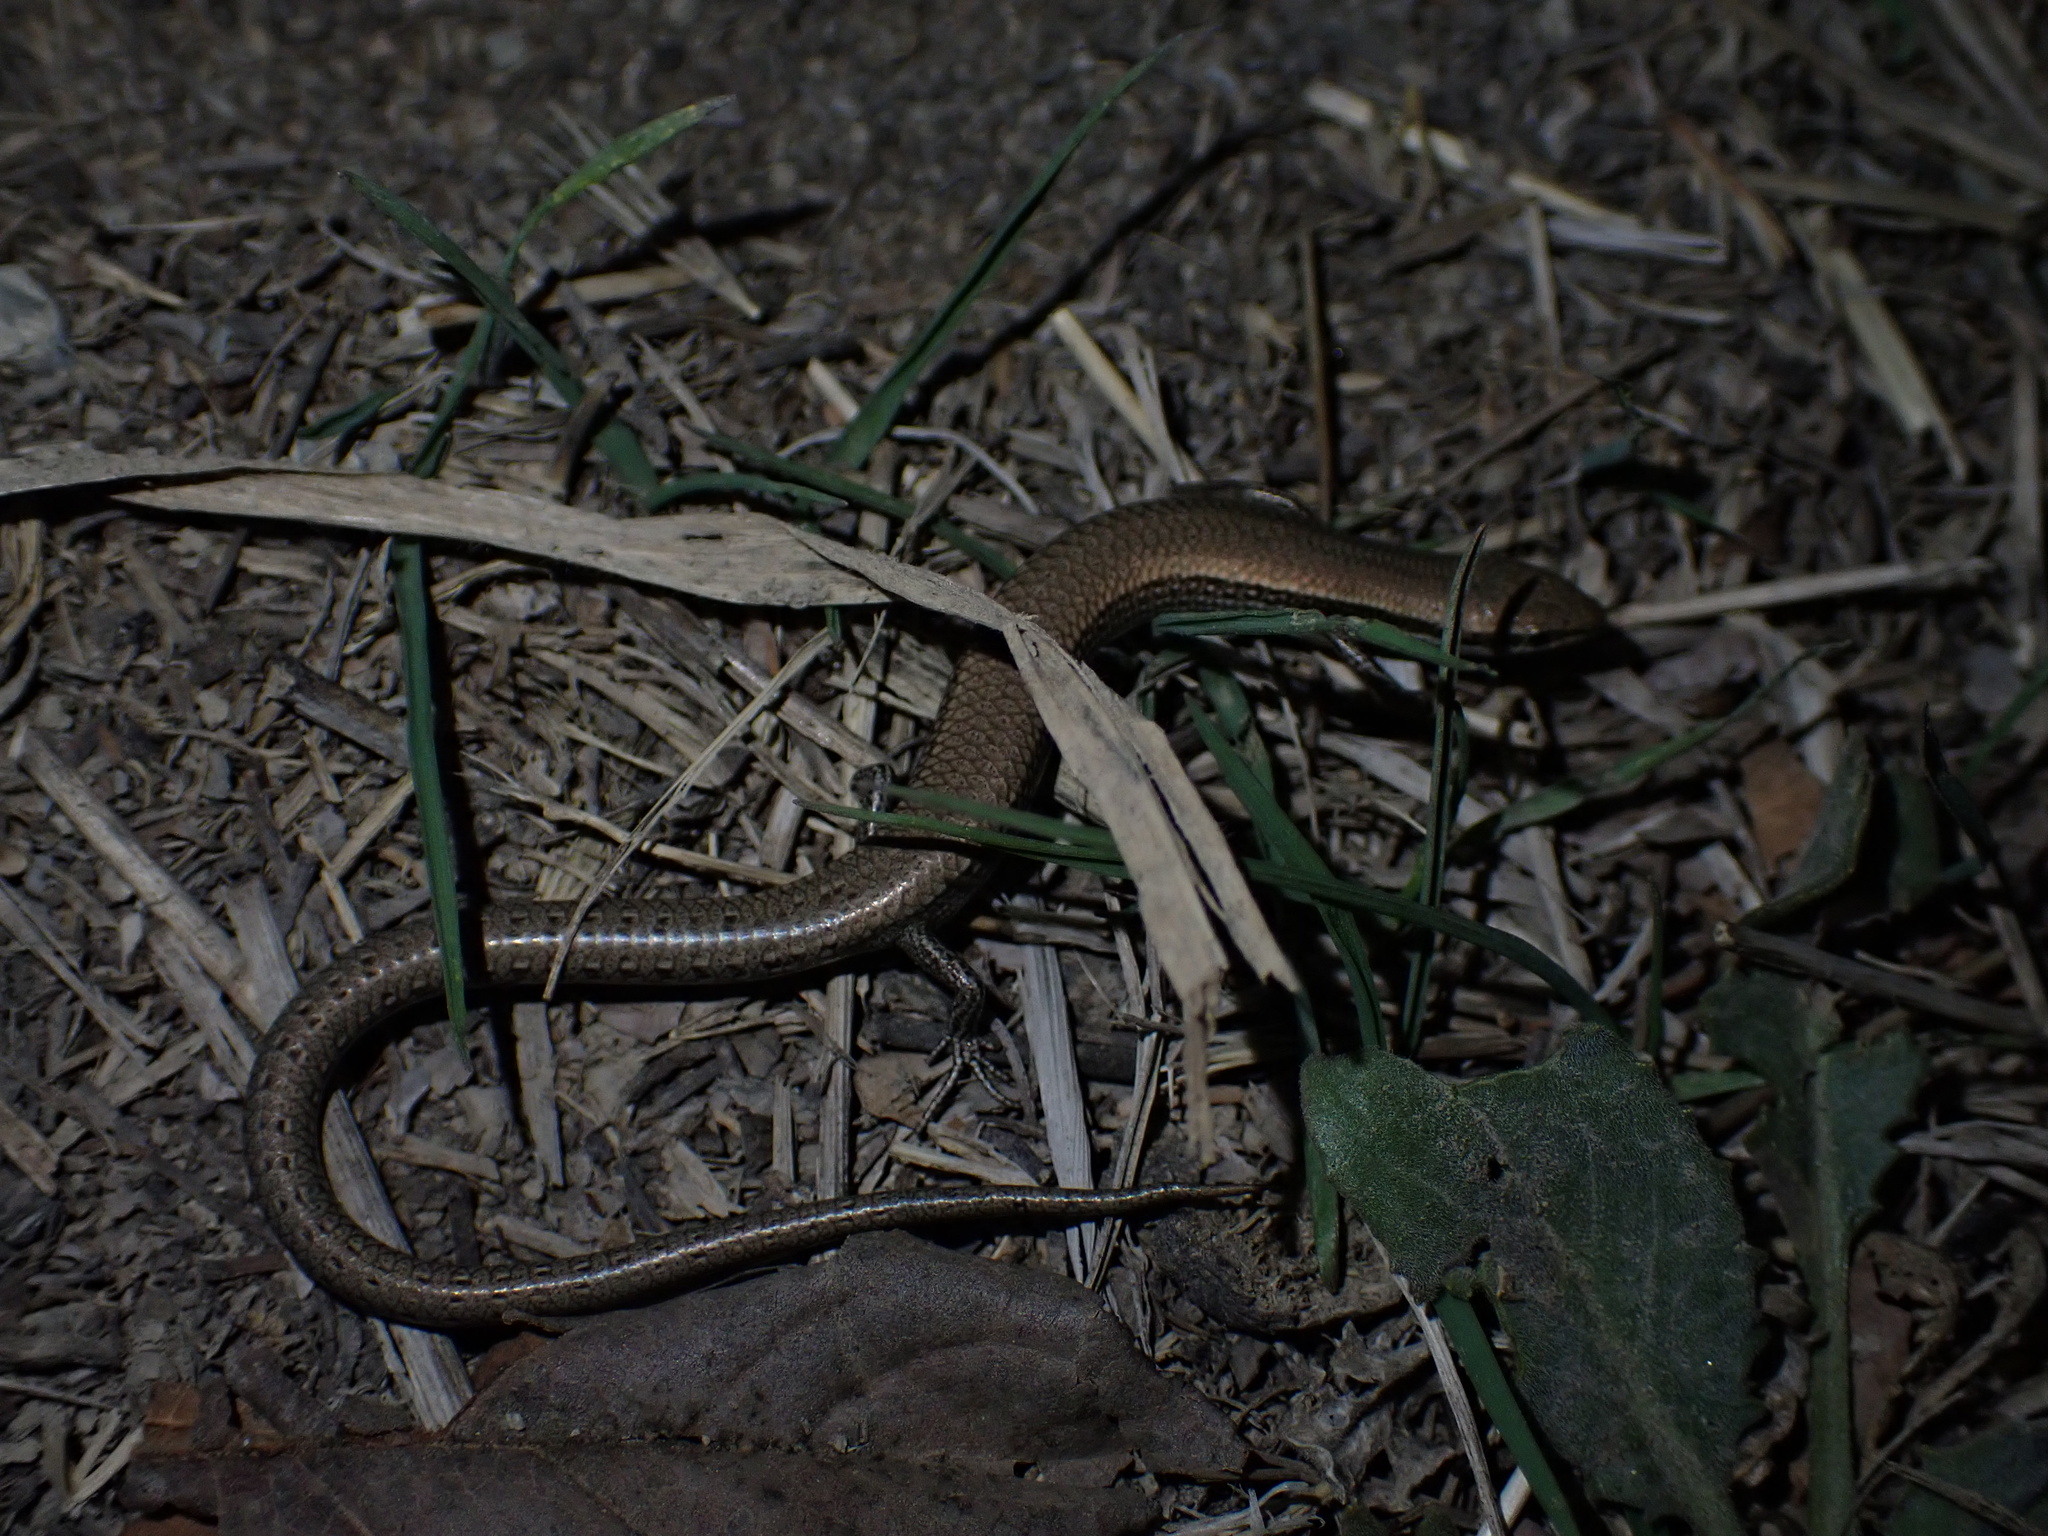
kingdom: Animalia
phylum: Chordata
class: Squamata
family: Scincidae
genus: Ablepharus
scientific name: Ablepharus pannonicus
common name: Asian snake-eyed skink
